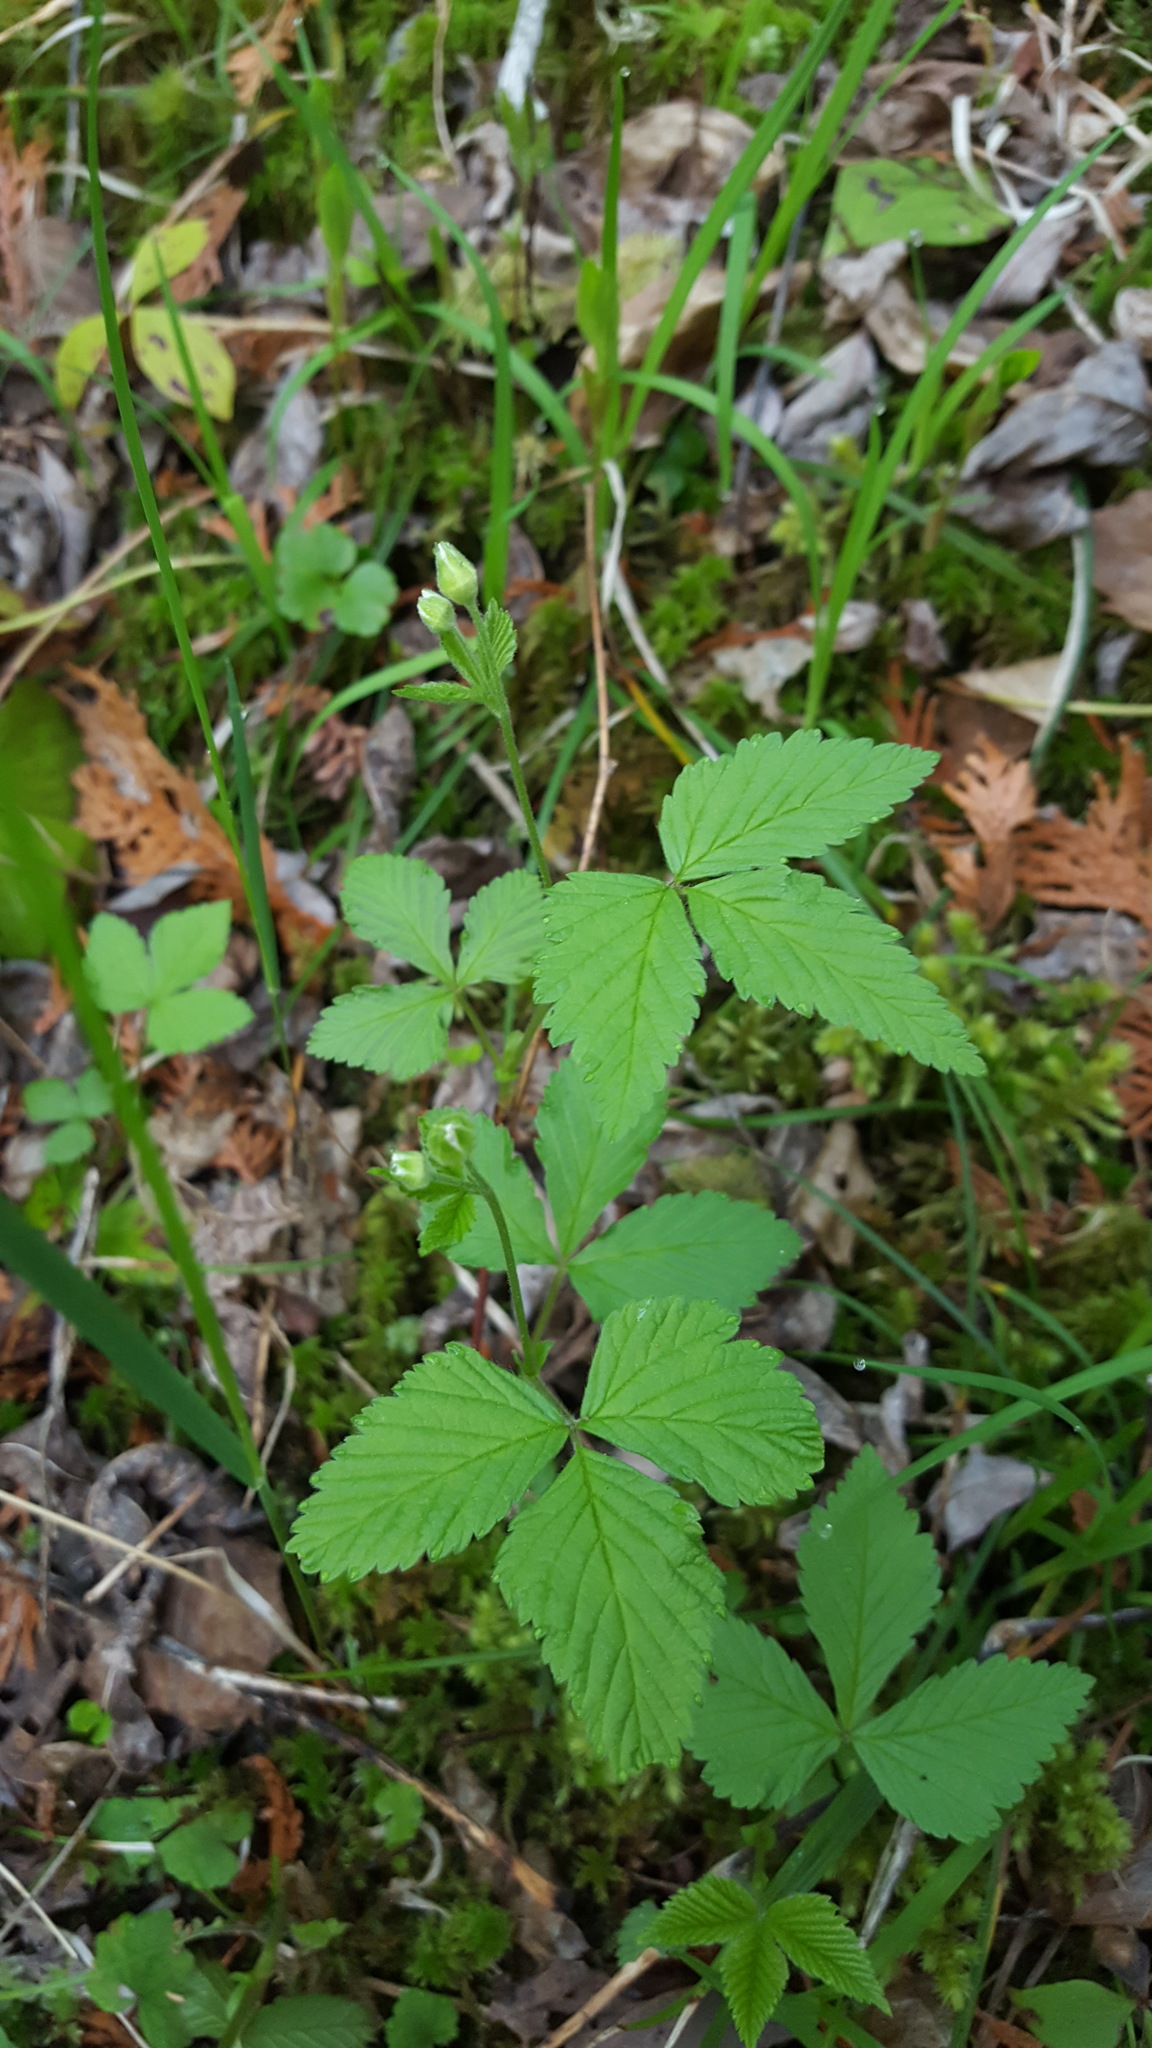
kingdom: Plantae
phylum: Tracheophyta
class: Magnoliopsida
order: Rosales
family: Rosaceae
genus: Rubus
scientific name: Rubus pubescens
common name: Dwarf raspberry
